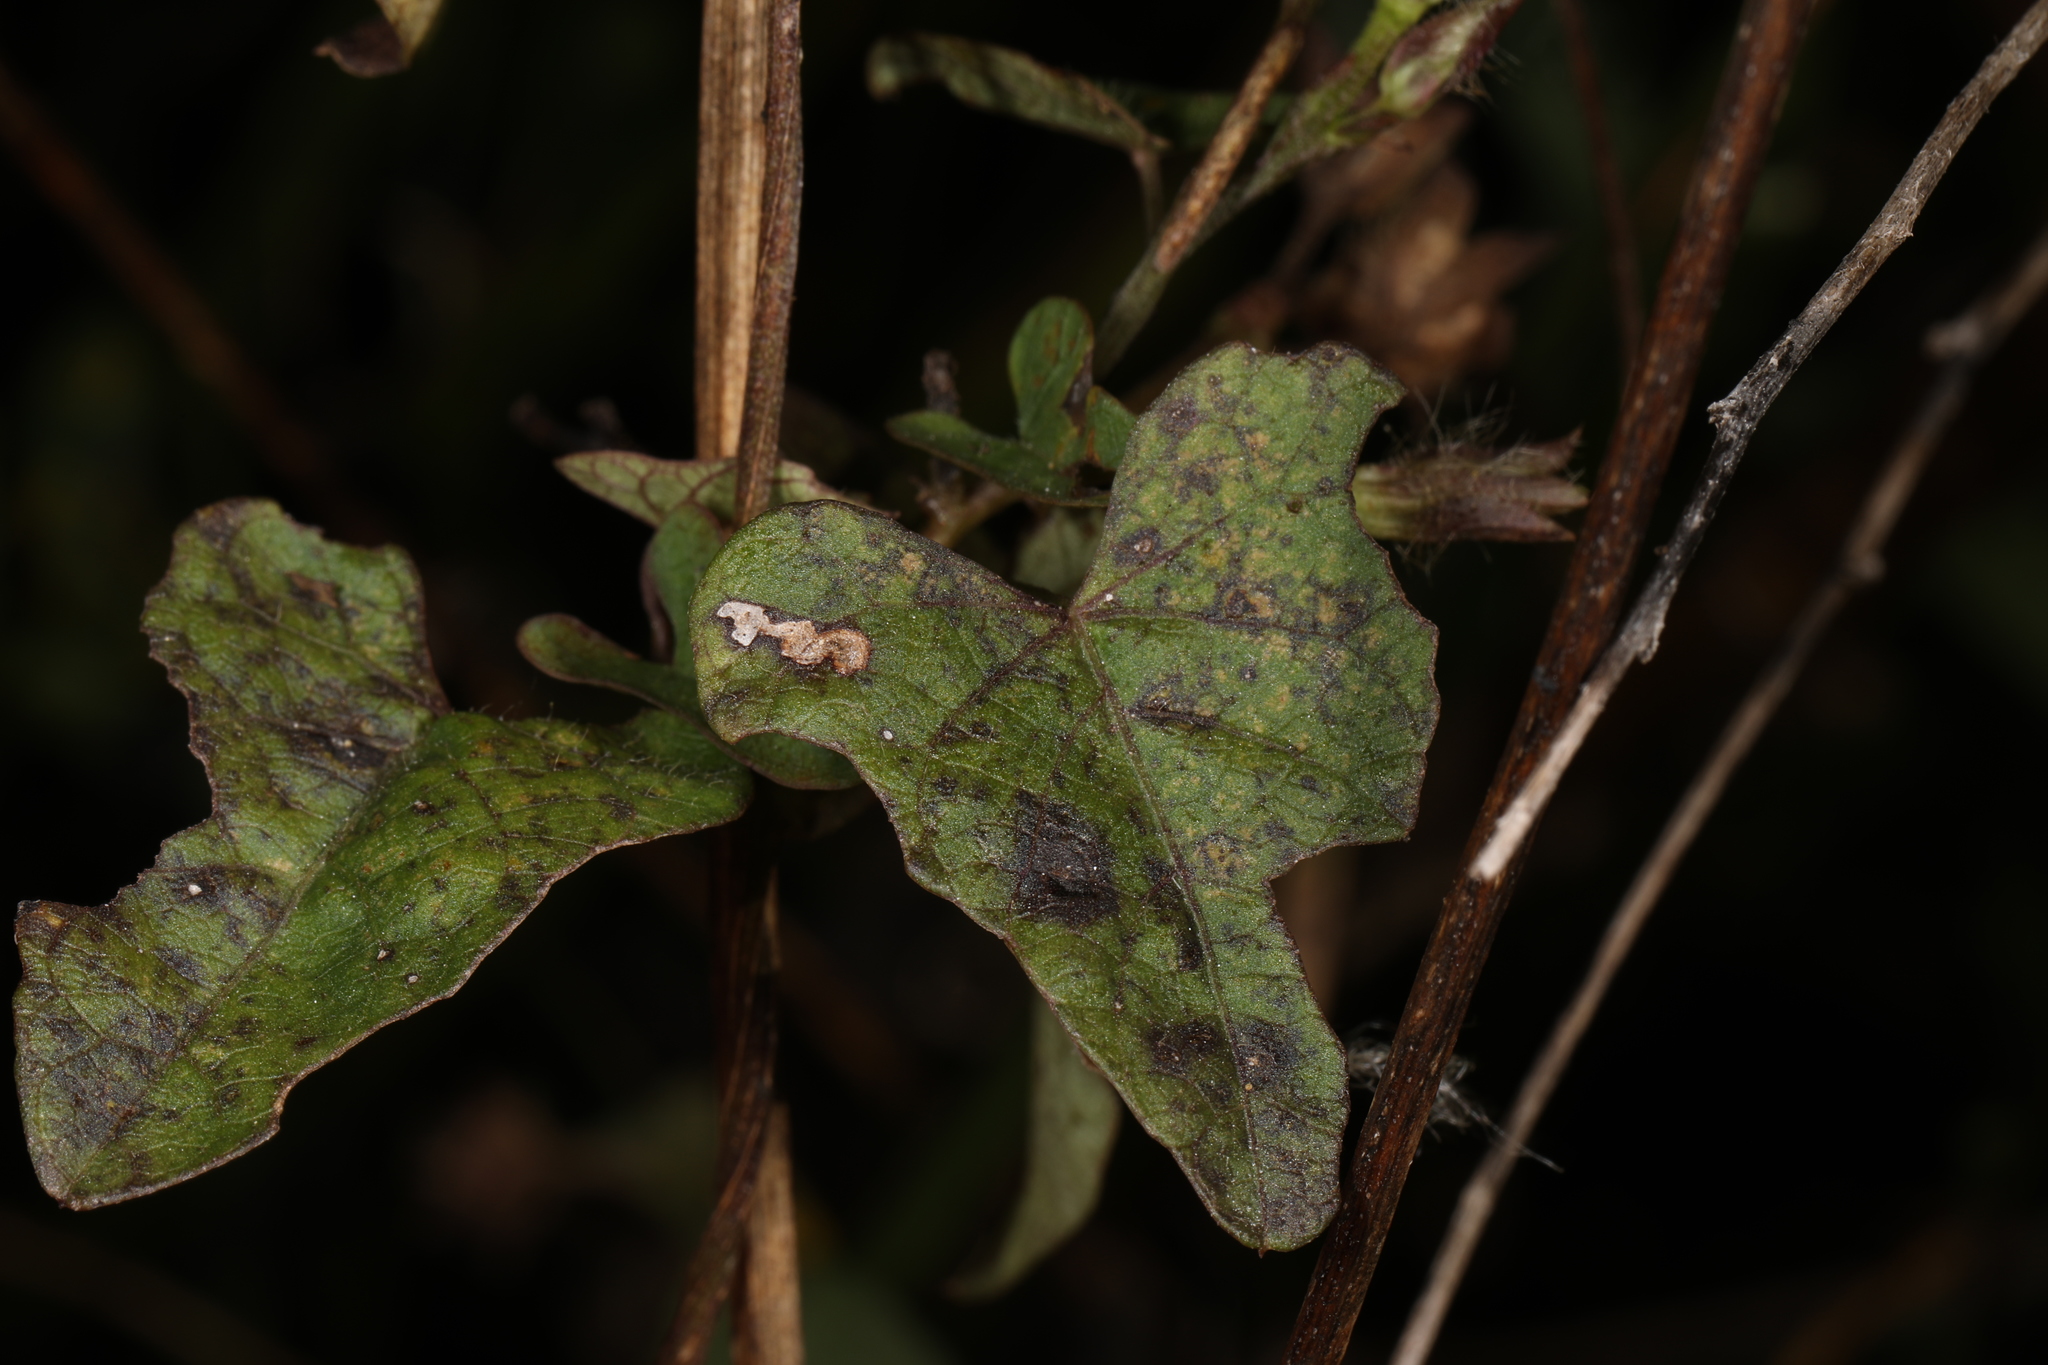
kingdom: Plantae
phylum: Tracheophyta
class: Magnoliopsida
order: Solanales
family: Convolvulaceae
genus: Ipomoea
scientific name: Ipomoea triloba
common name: Little-bell
